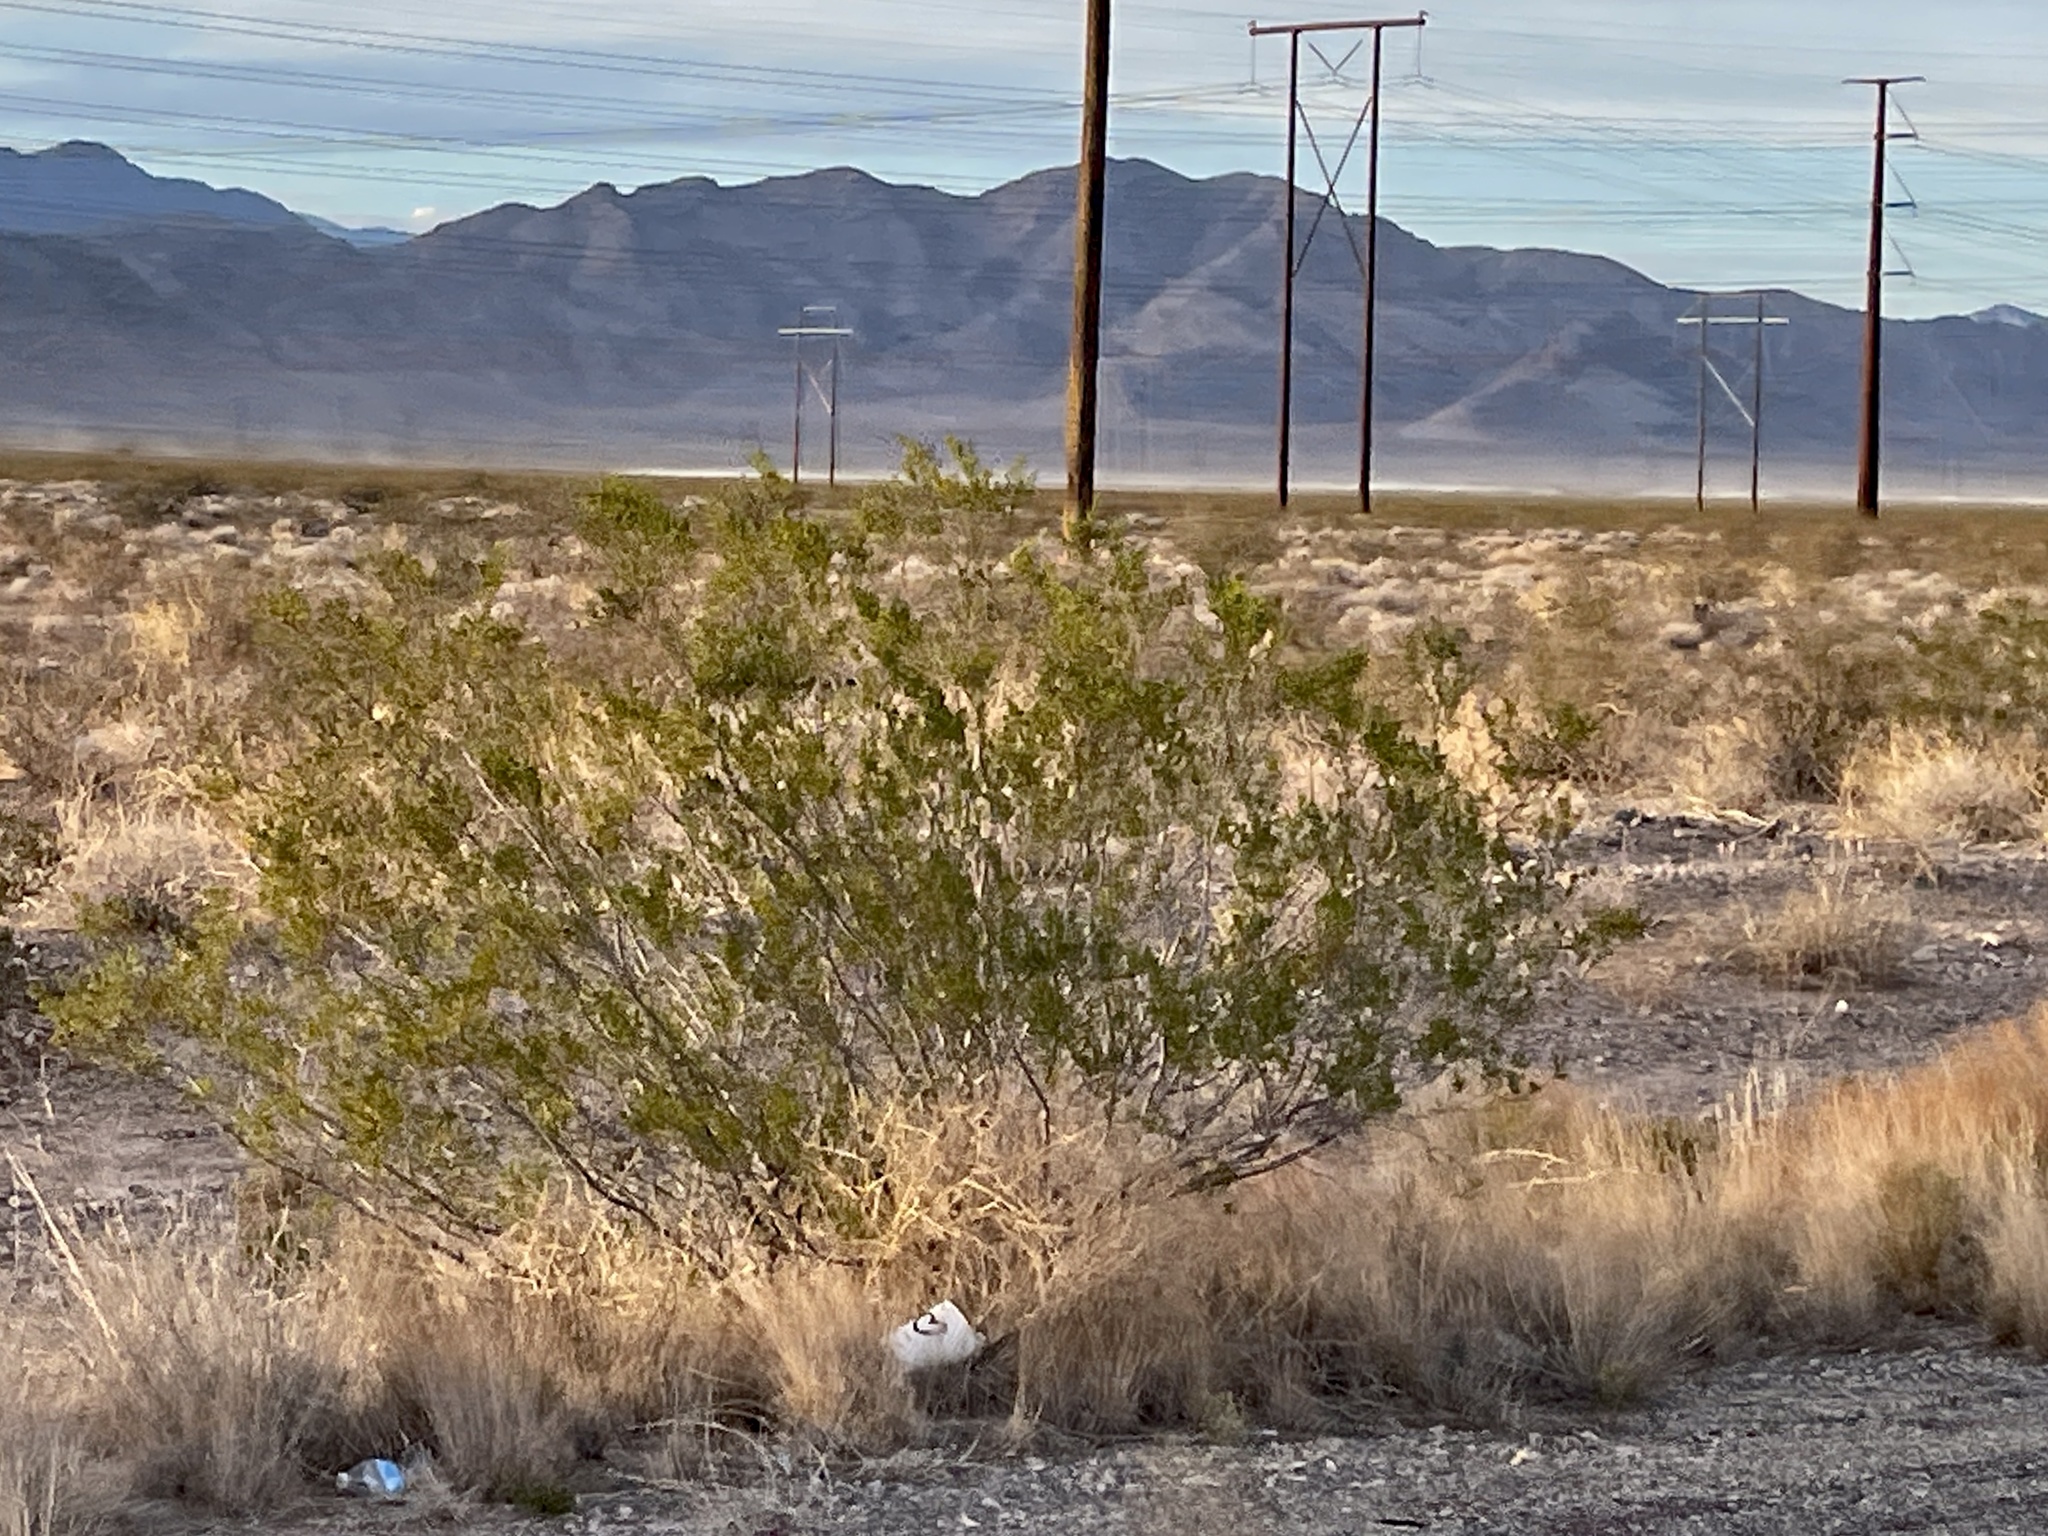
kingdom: Plantae
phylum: Tracheophyta
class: Magnoliopsida
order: Zygophyllales
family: Zygophyllaceae
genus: Larrea
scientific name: Larrea tridentata
